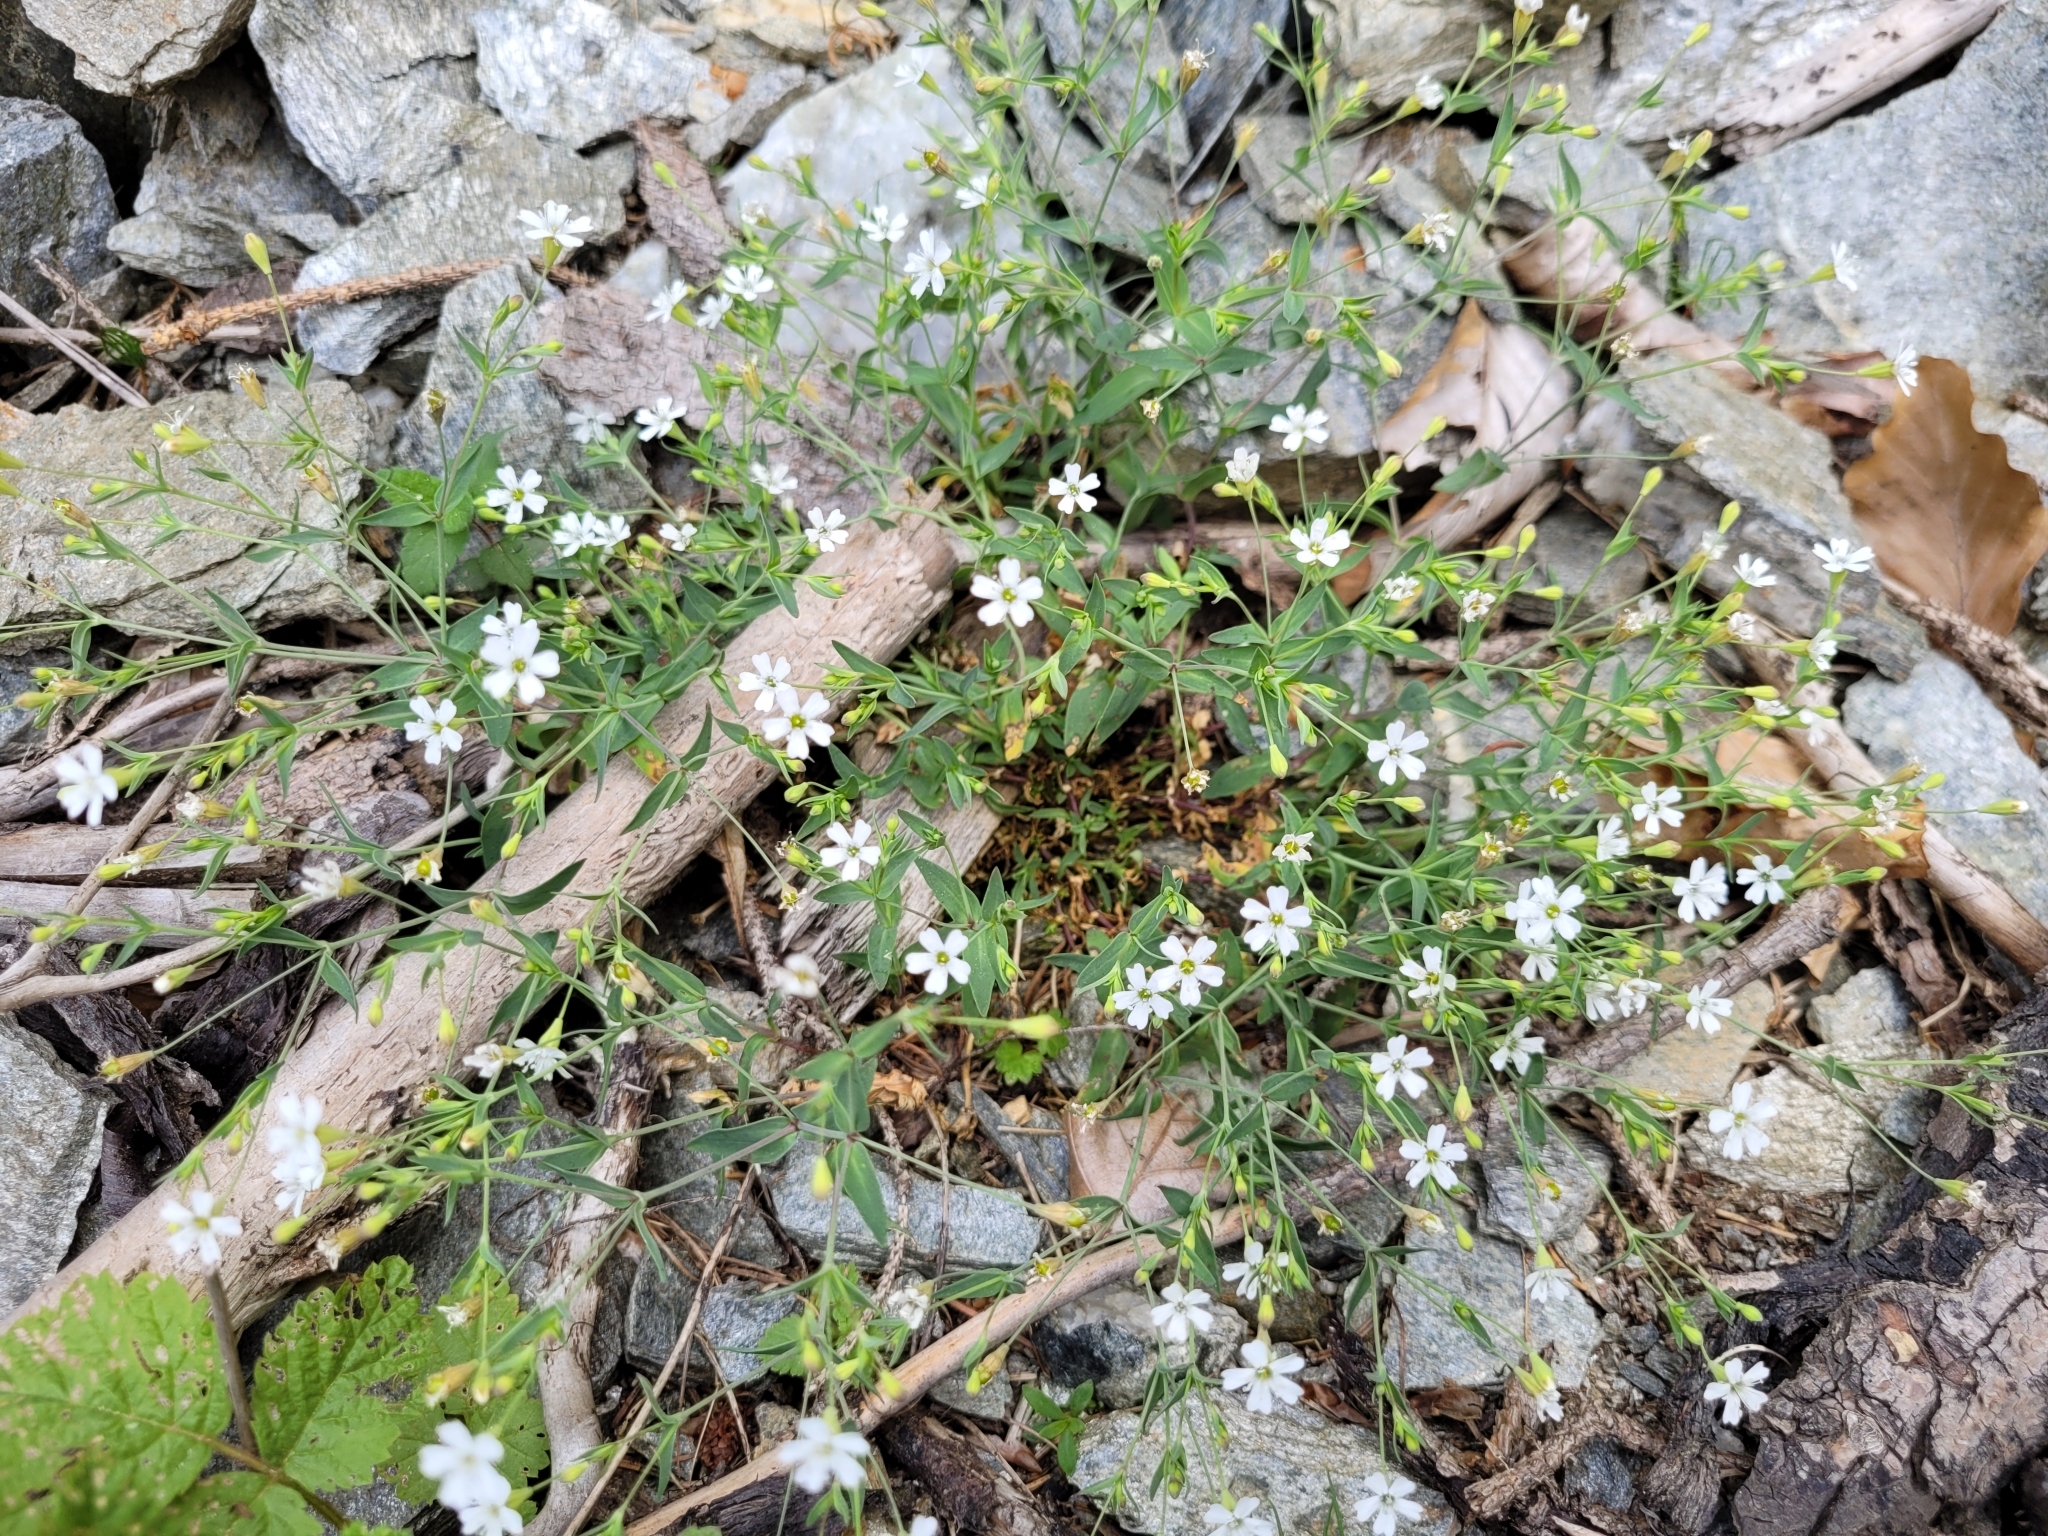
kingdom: Plantae
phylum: Tracheophyta
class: Magnoliopsida
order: Caryophyllales
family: Caryophyllaceae
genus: Atocion
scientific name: Atocion rupestre
